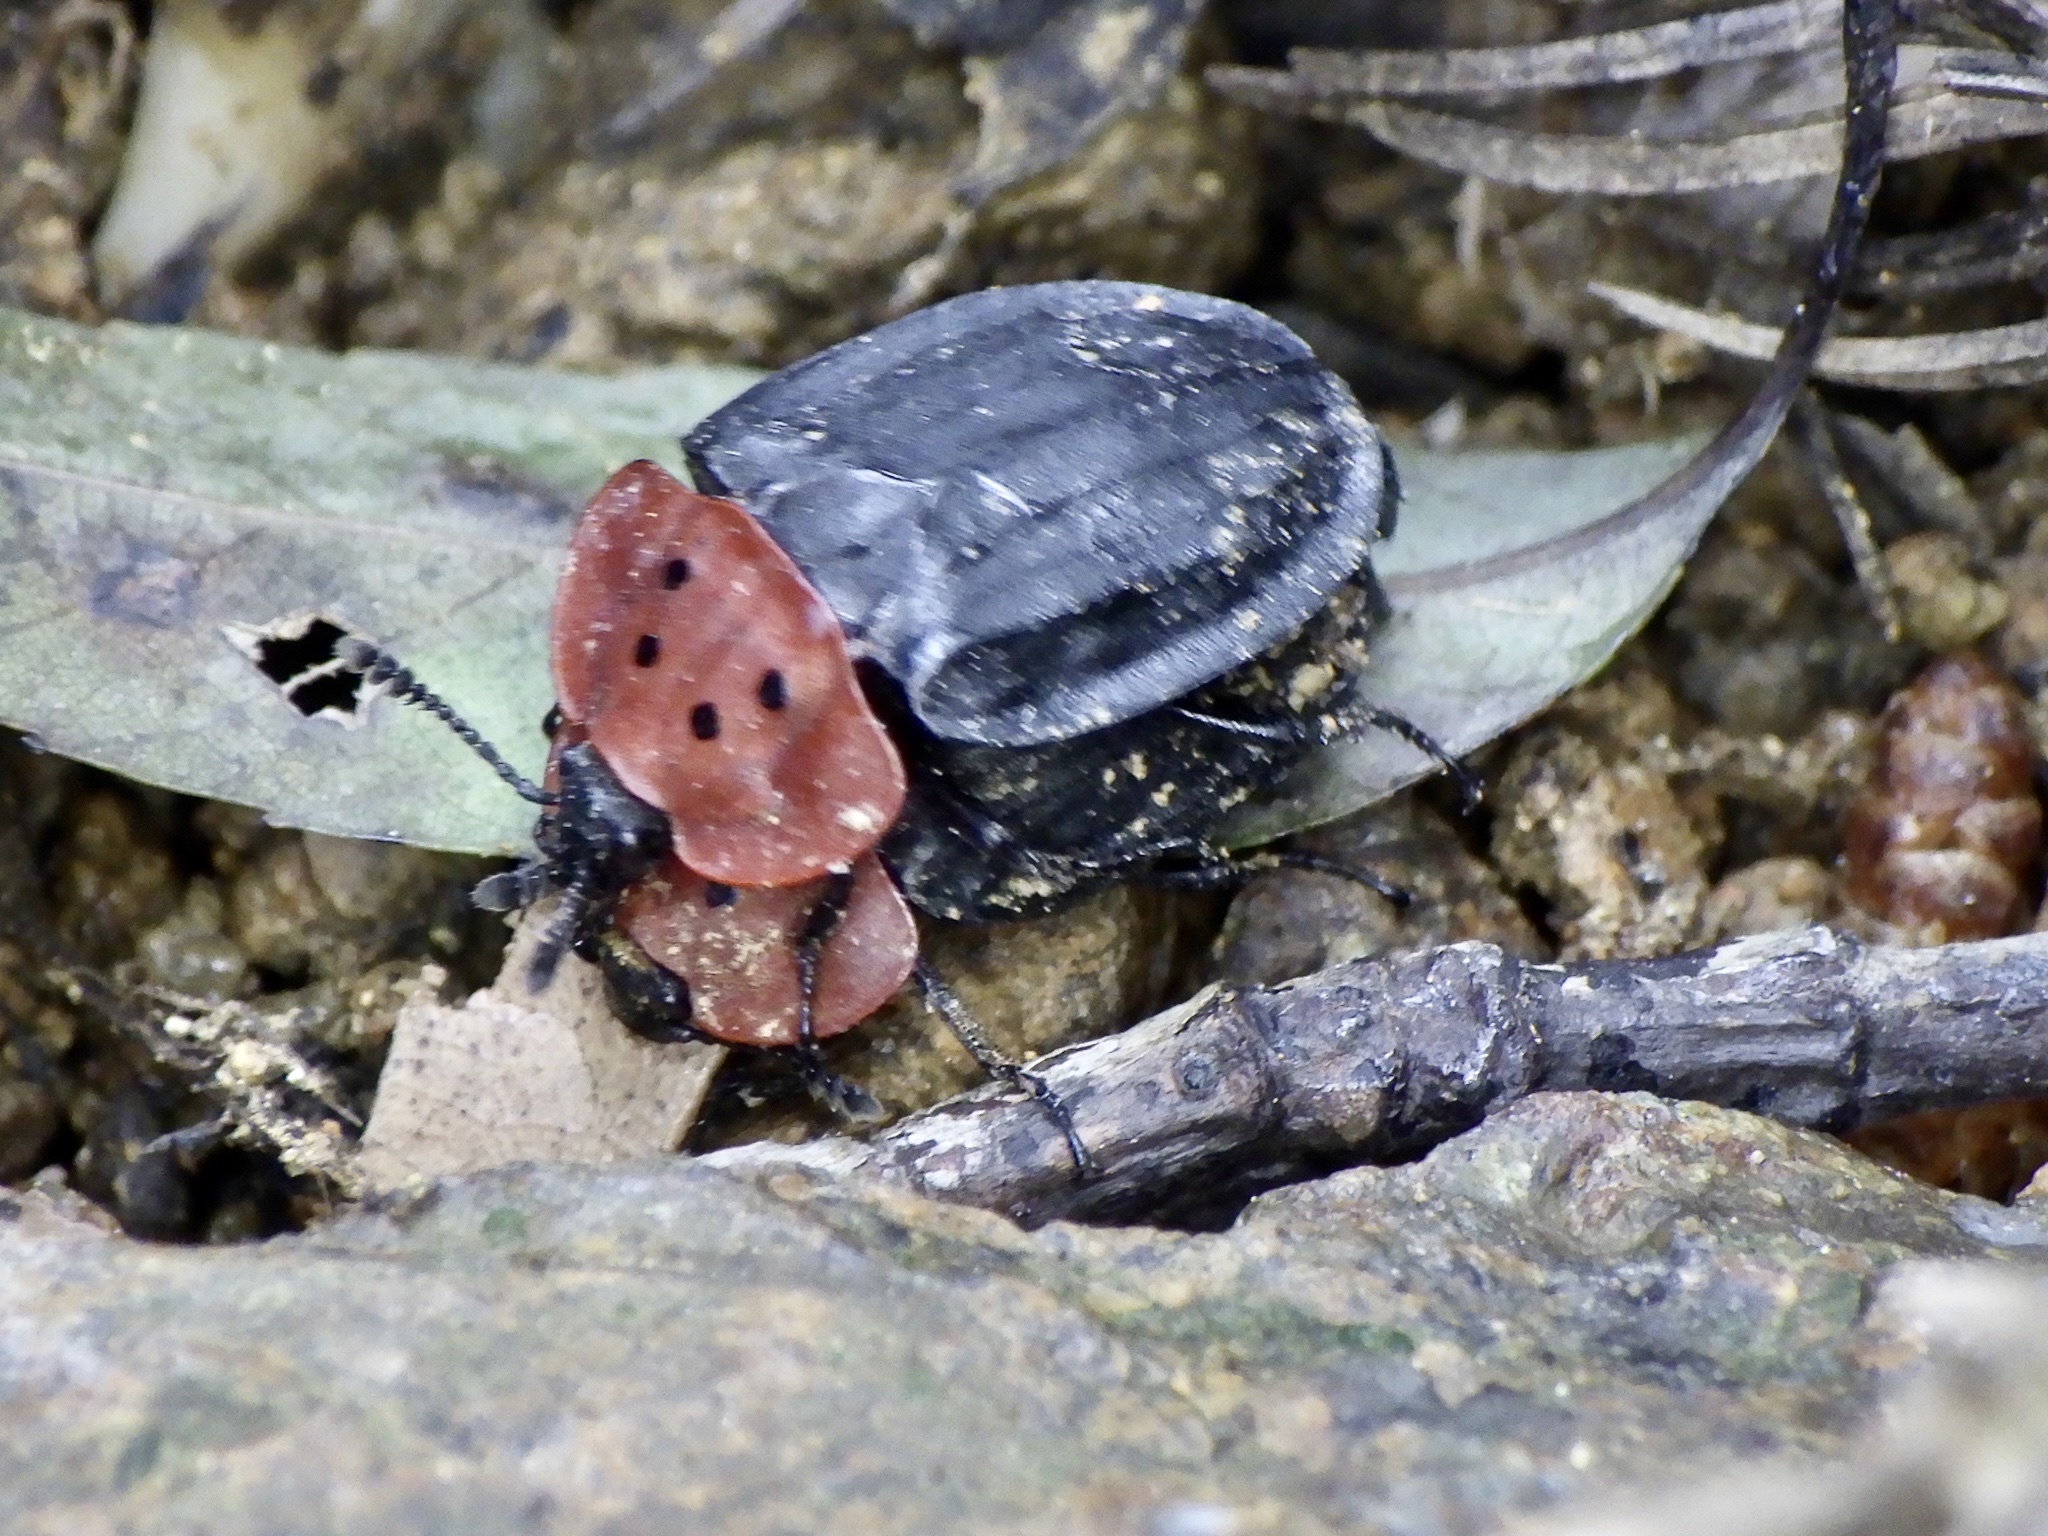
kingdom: Animalia
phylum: Arthropoda
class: Insecta
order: Coleoptera
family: Staphylinidae
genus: Oiceoptoma
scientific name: Oiceoptoma nigropunctatum
